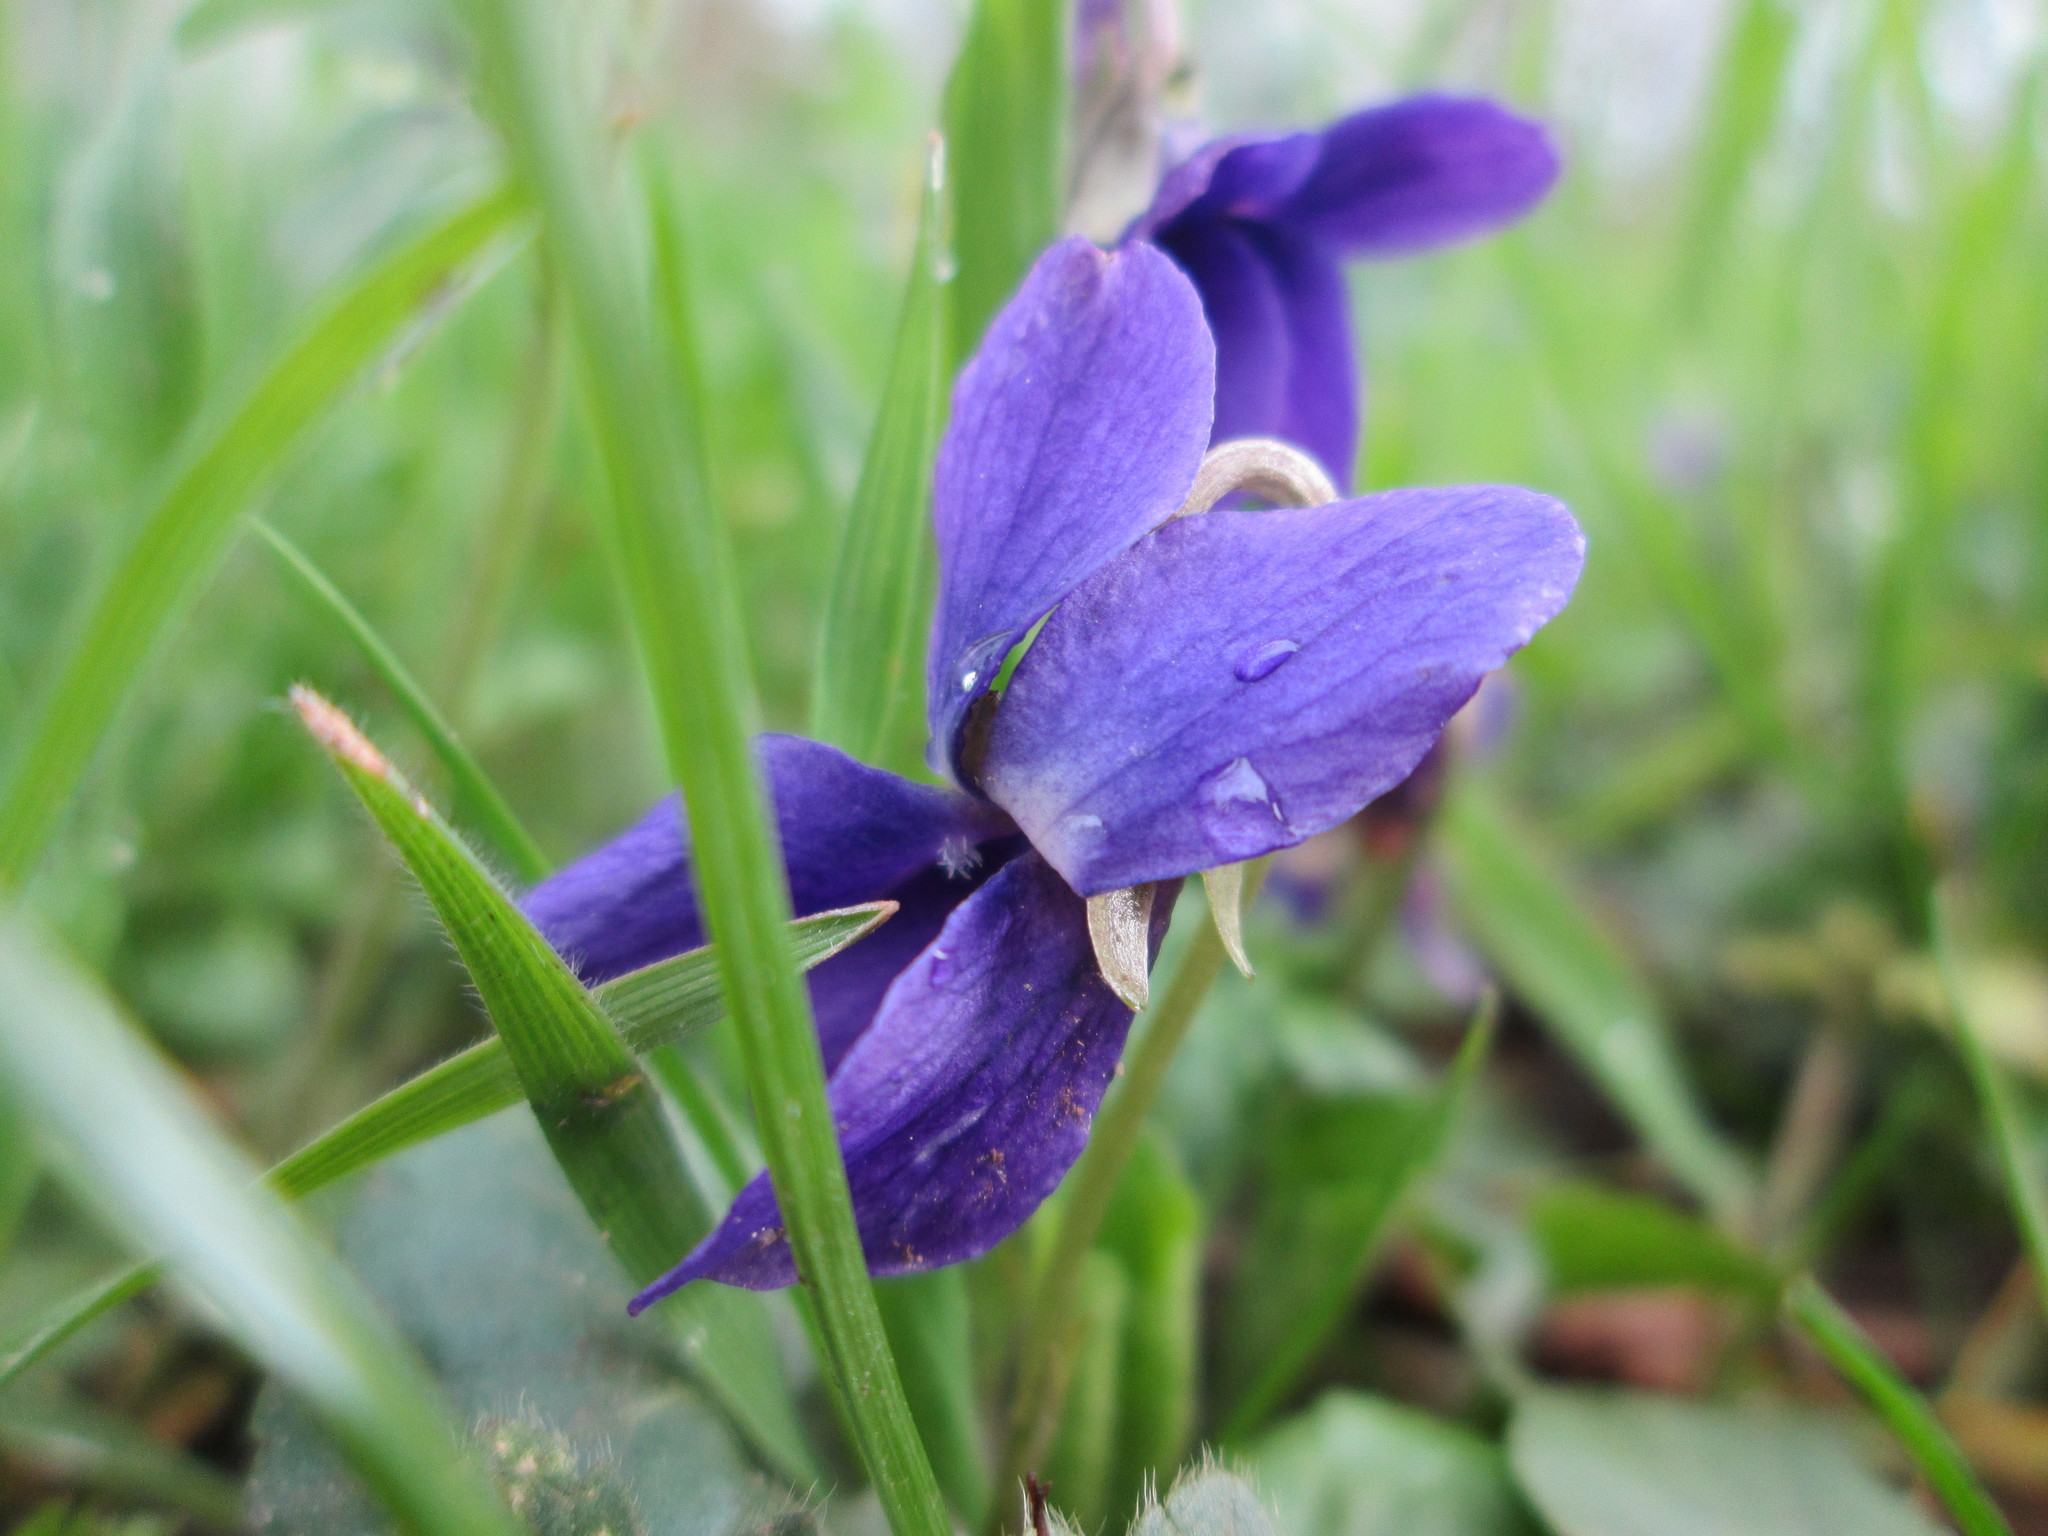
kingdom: Plantae
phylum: Tracheophyta
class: Magnoliopsida
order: Malpighiales
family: Violaceae
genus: Viola
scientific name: Viola odorata
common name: Sweet violet
